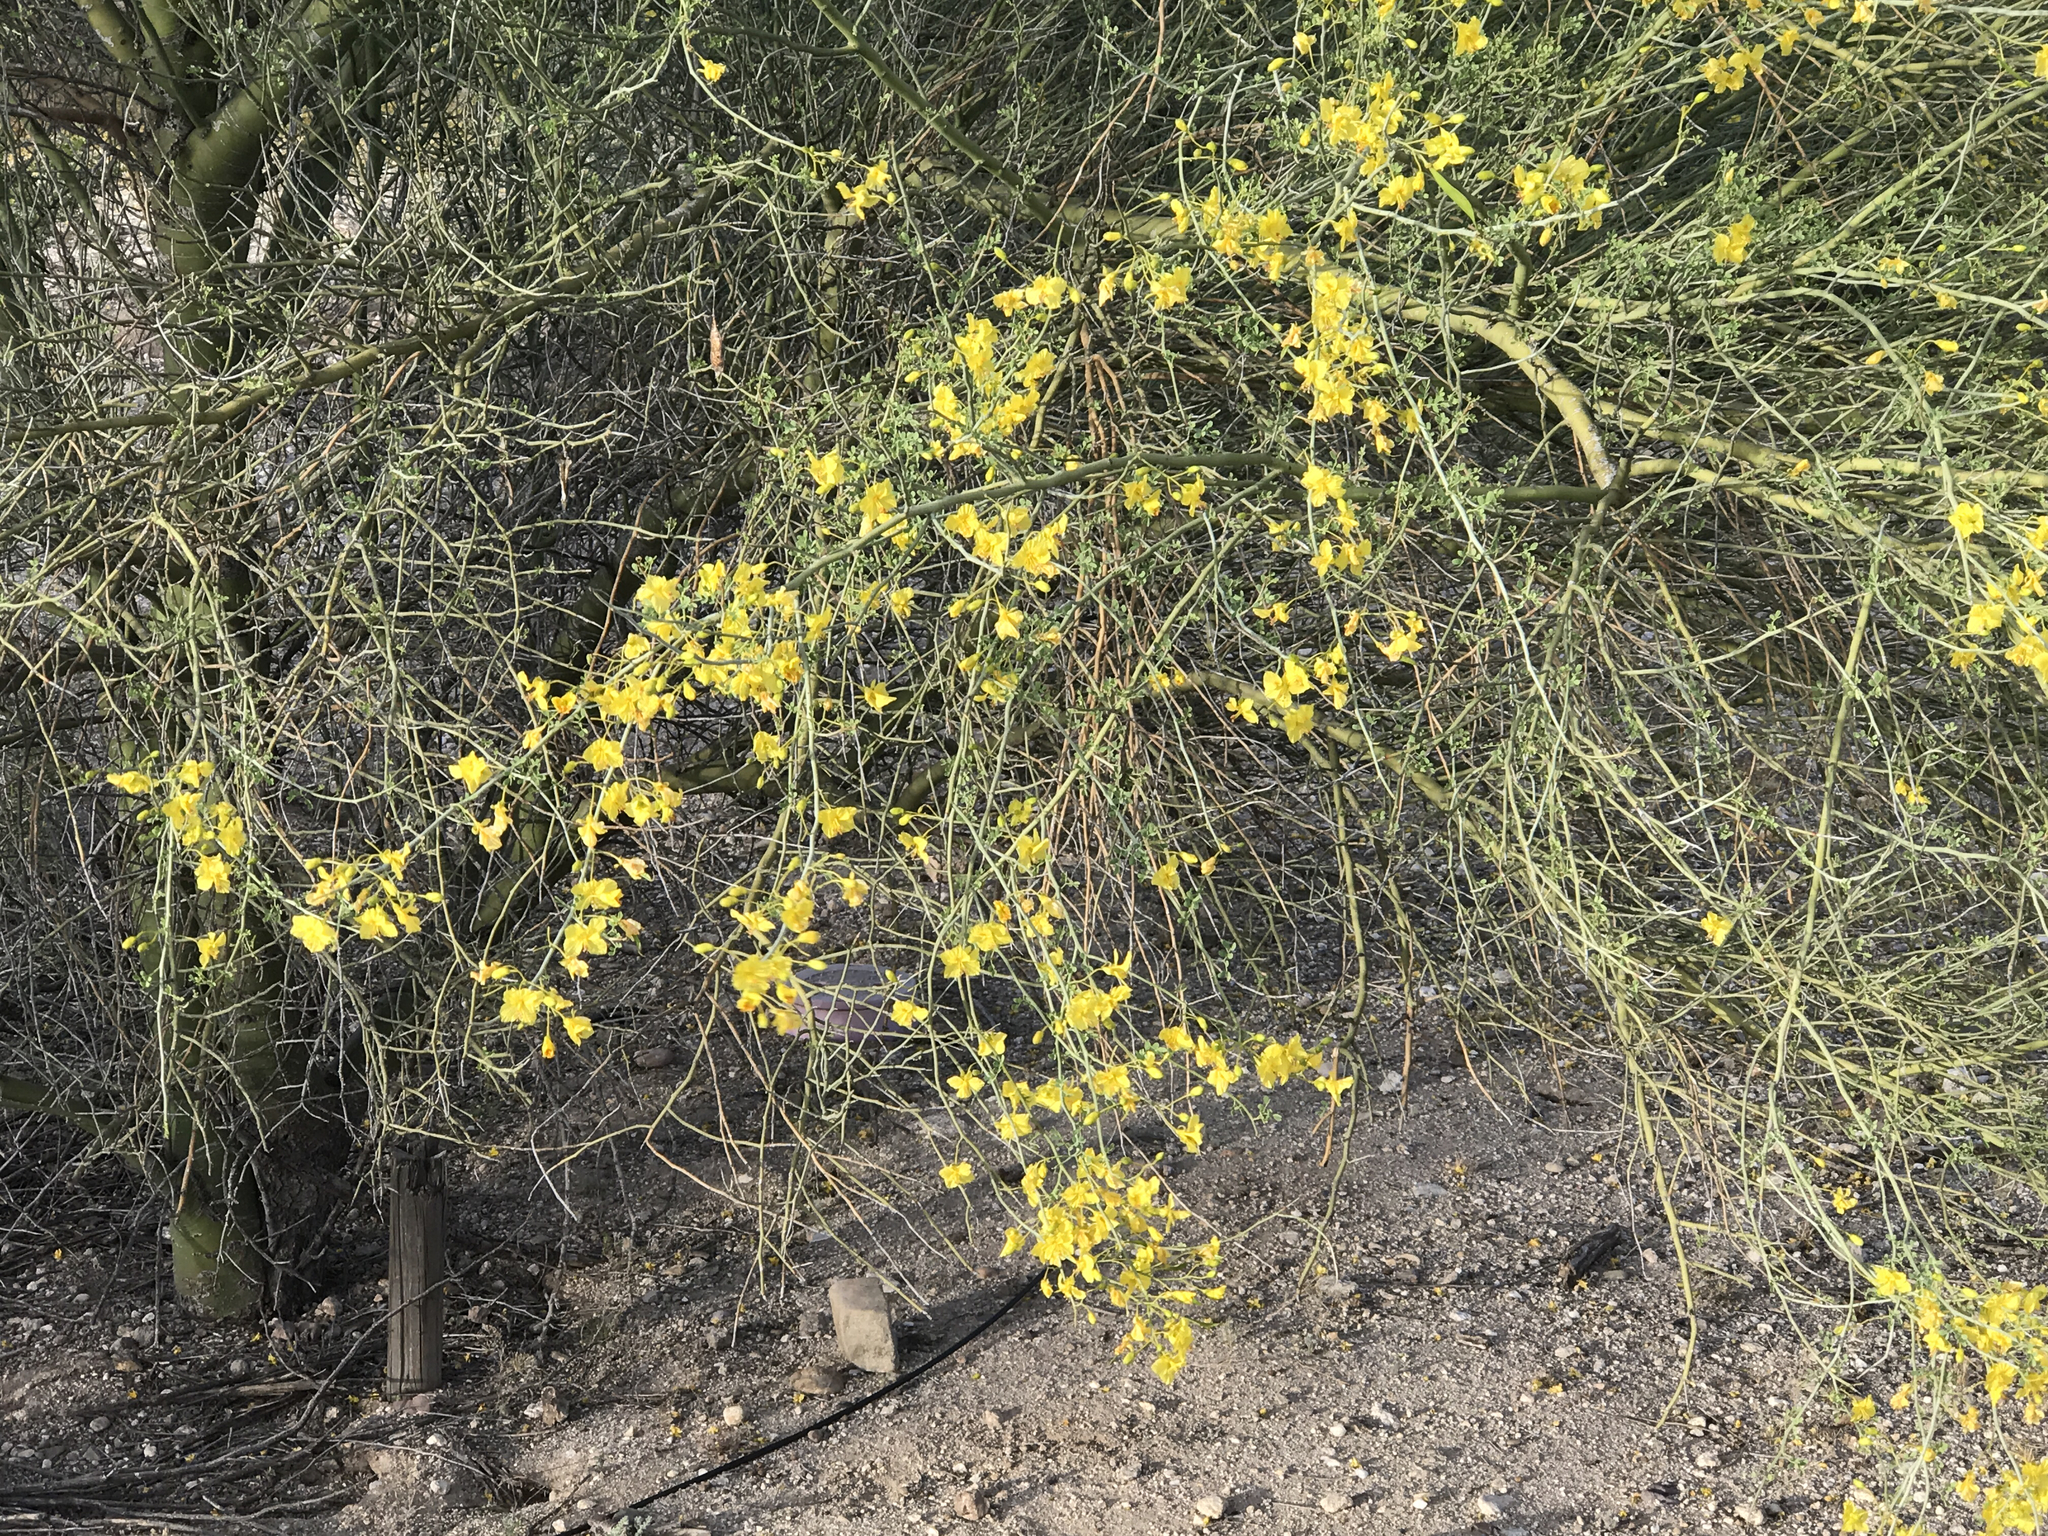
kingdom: Plantae
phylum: Tracheophyta
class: Magnoliopsida
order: Fabales
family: Fabaceae
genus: Parkinsonia
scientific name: Parkinsonia florida
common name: Blue paloverde
